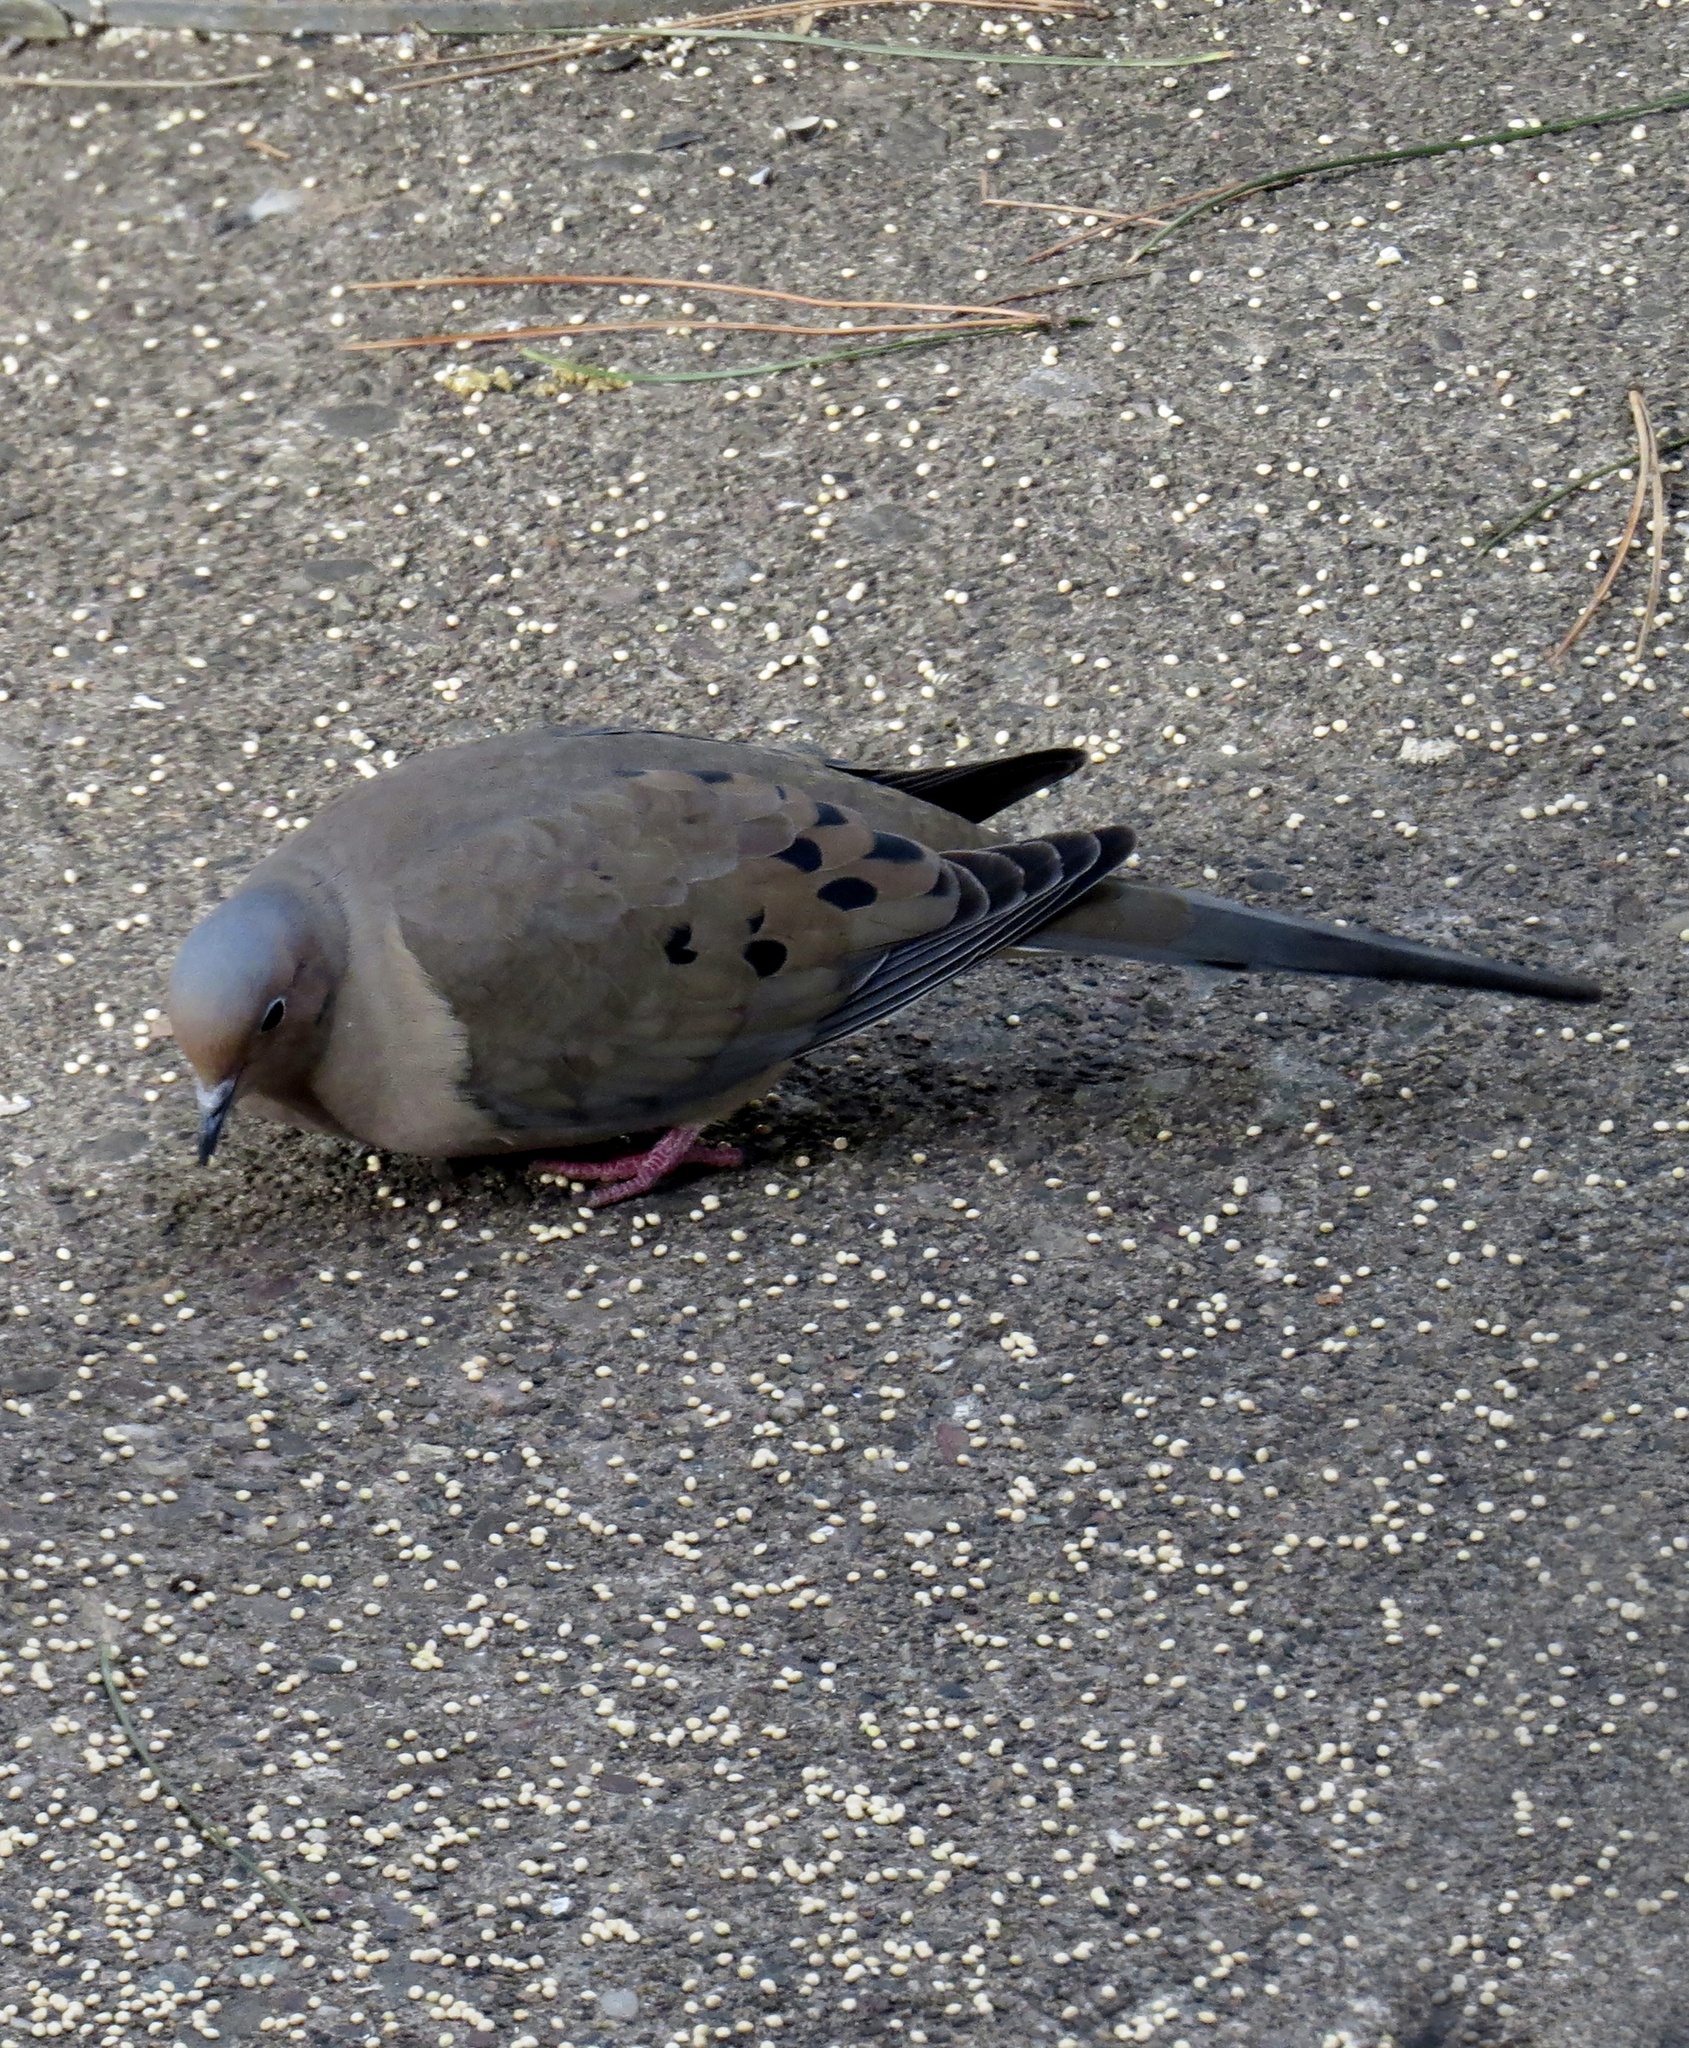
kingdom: Animalia
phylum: Chordata
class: Aves
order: Columbiformes
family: Columbidae
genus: Zenaida
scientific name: Zenaida macroura
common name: Mourning dove
